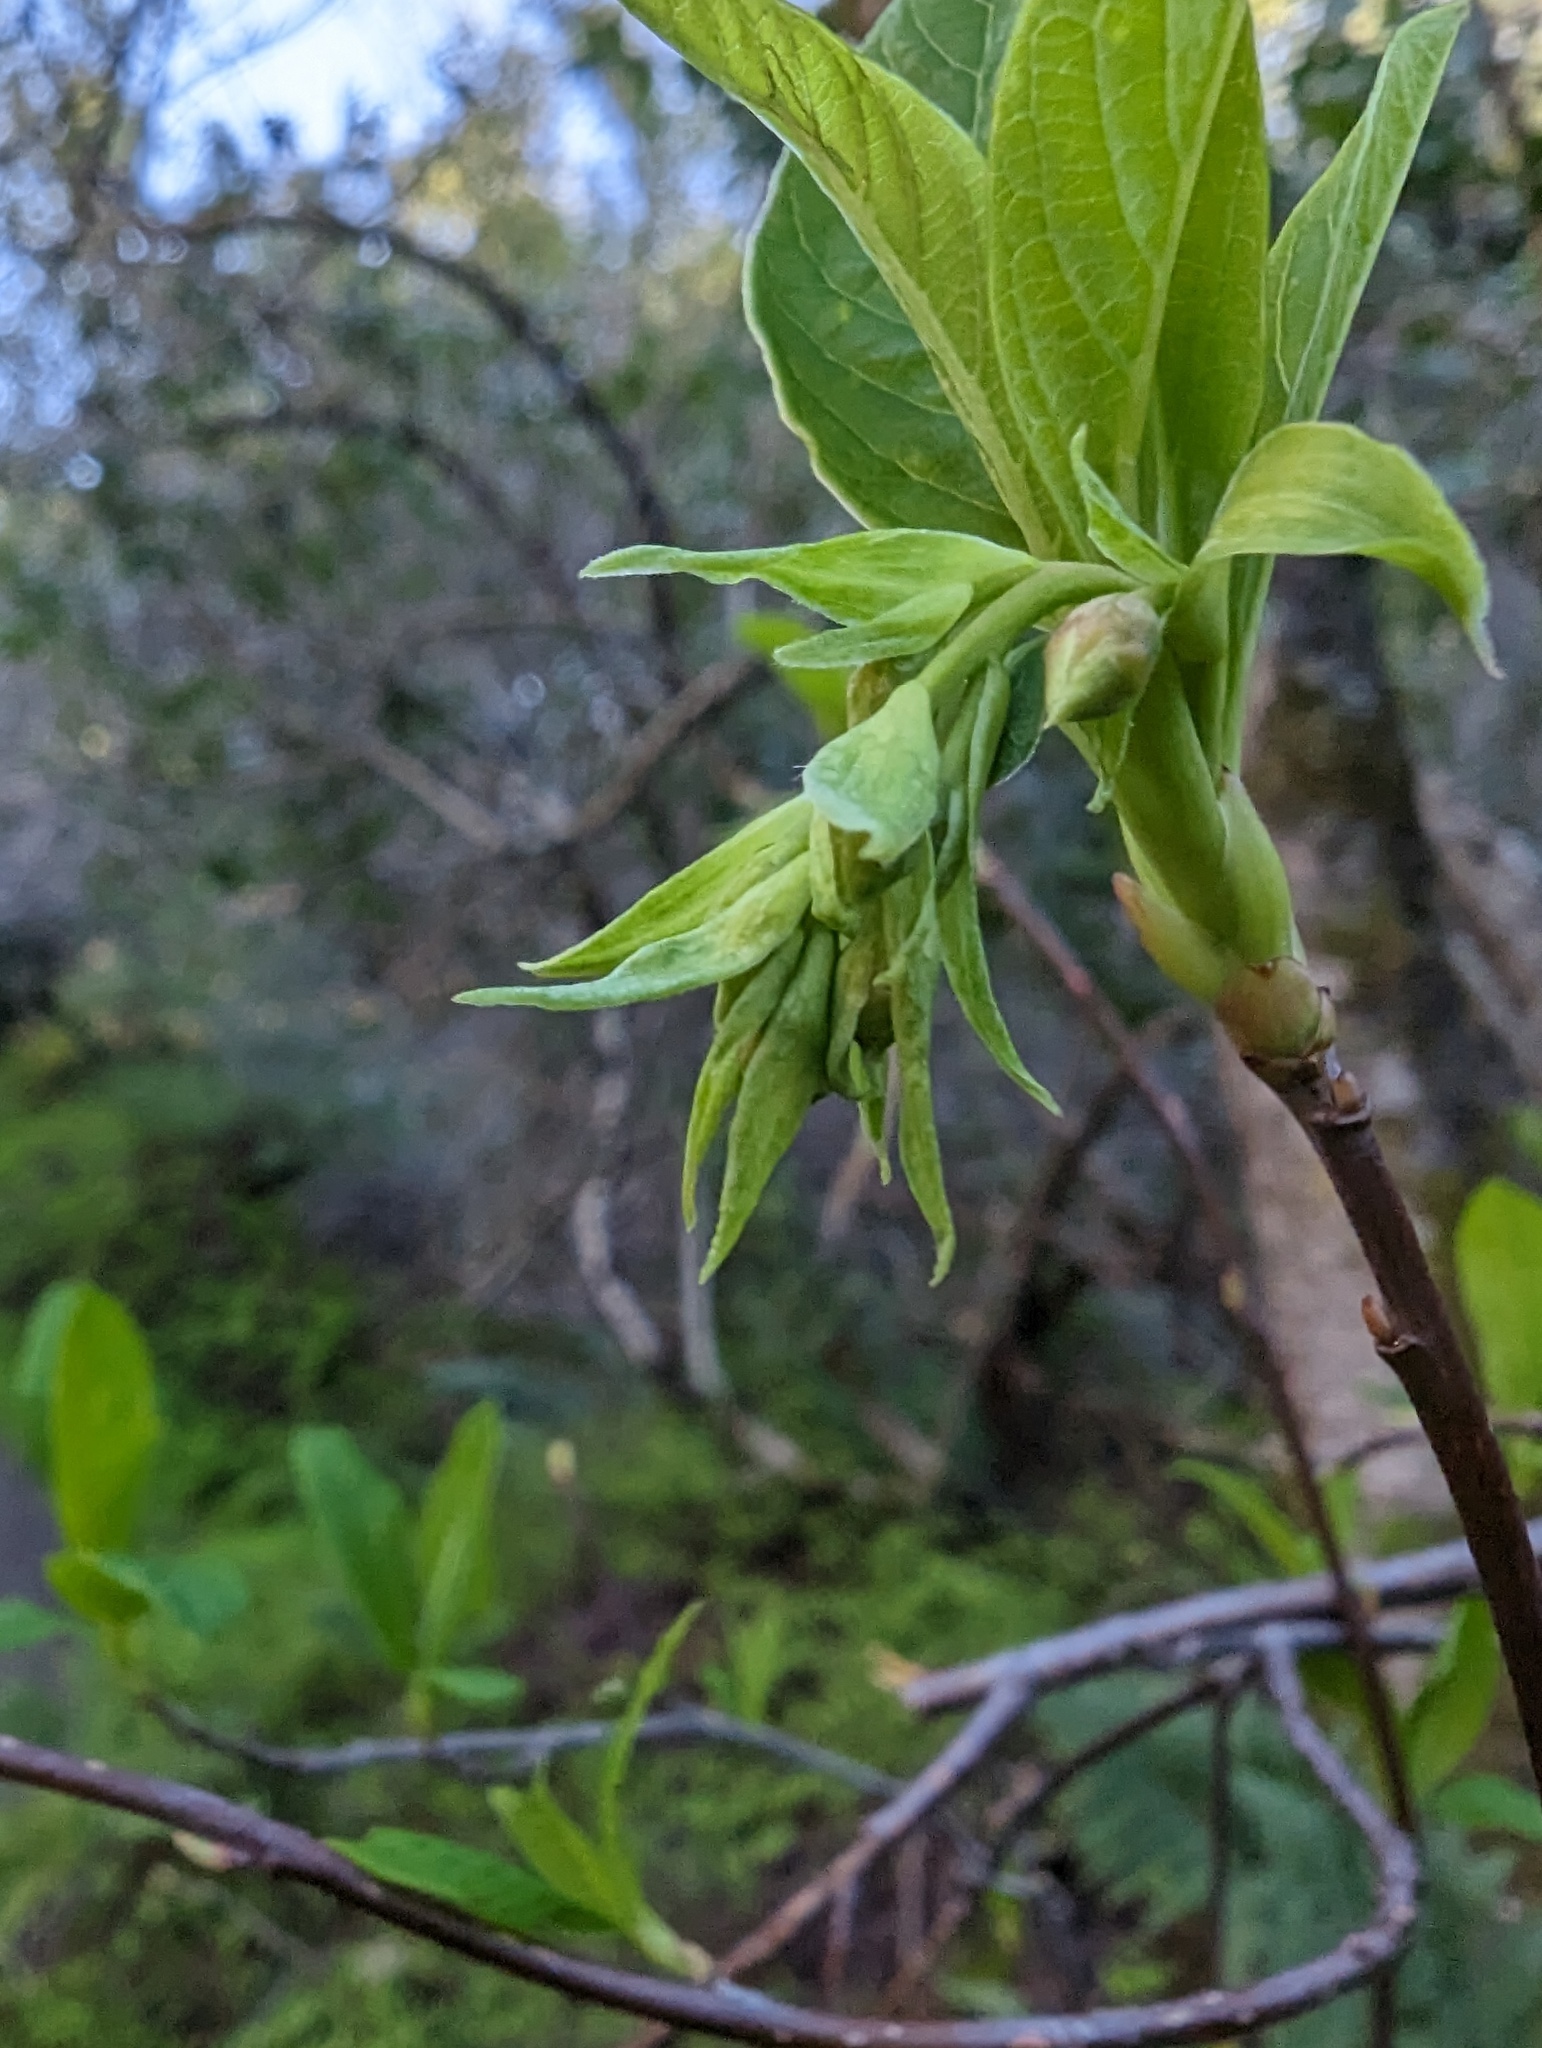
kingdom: Plantae
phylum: Tracheophyta
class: Magnoliopsida
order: Rosales
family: Rosaceae
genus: Oemleria
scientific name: Oemleria cerasiformis
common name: Osoberry
